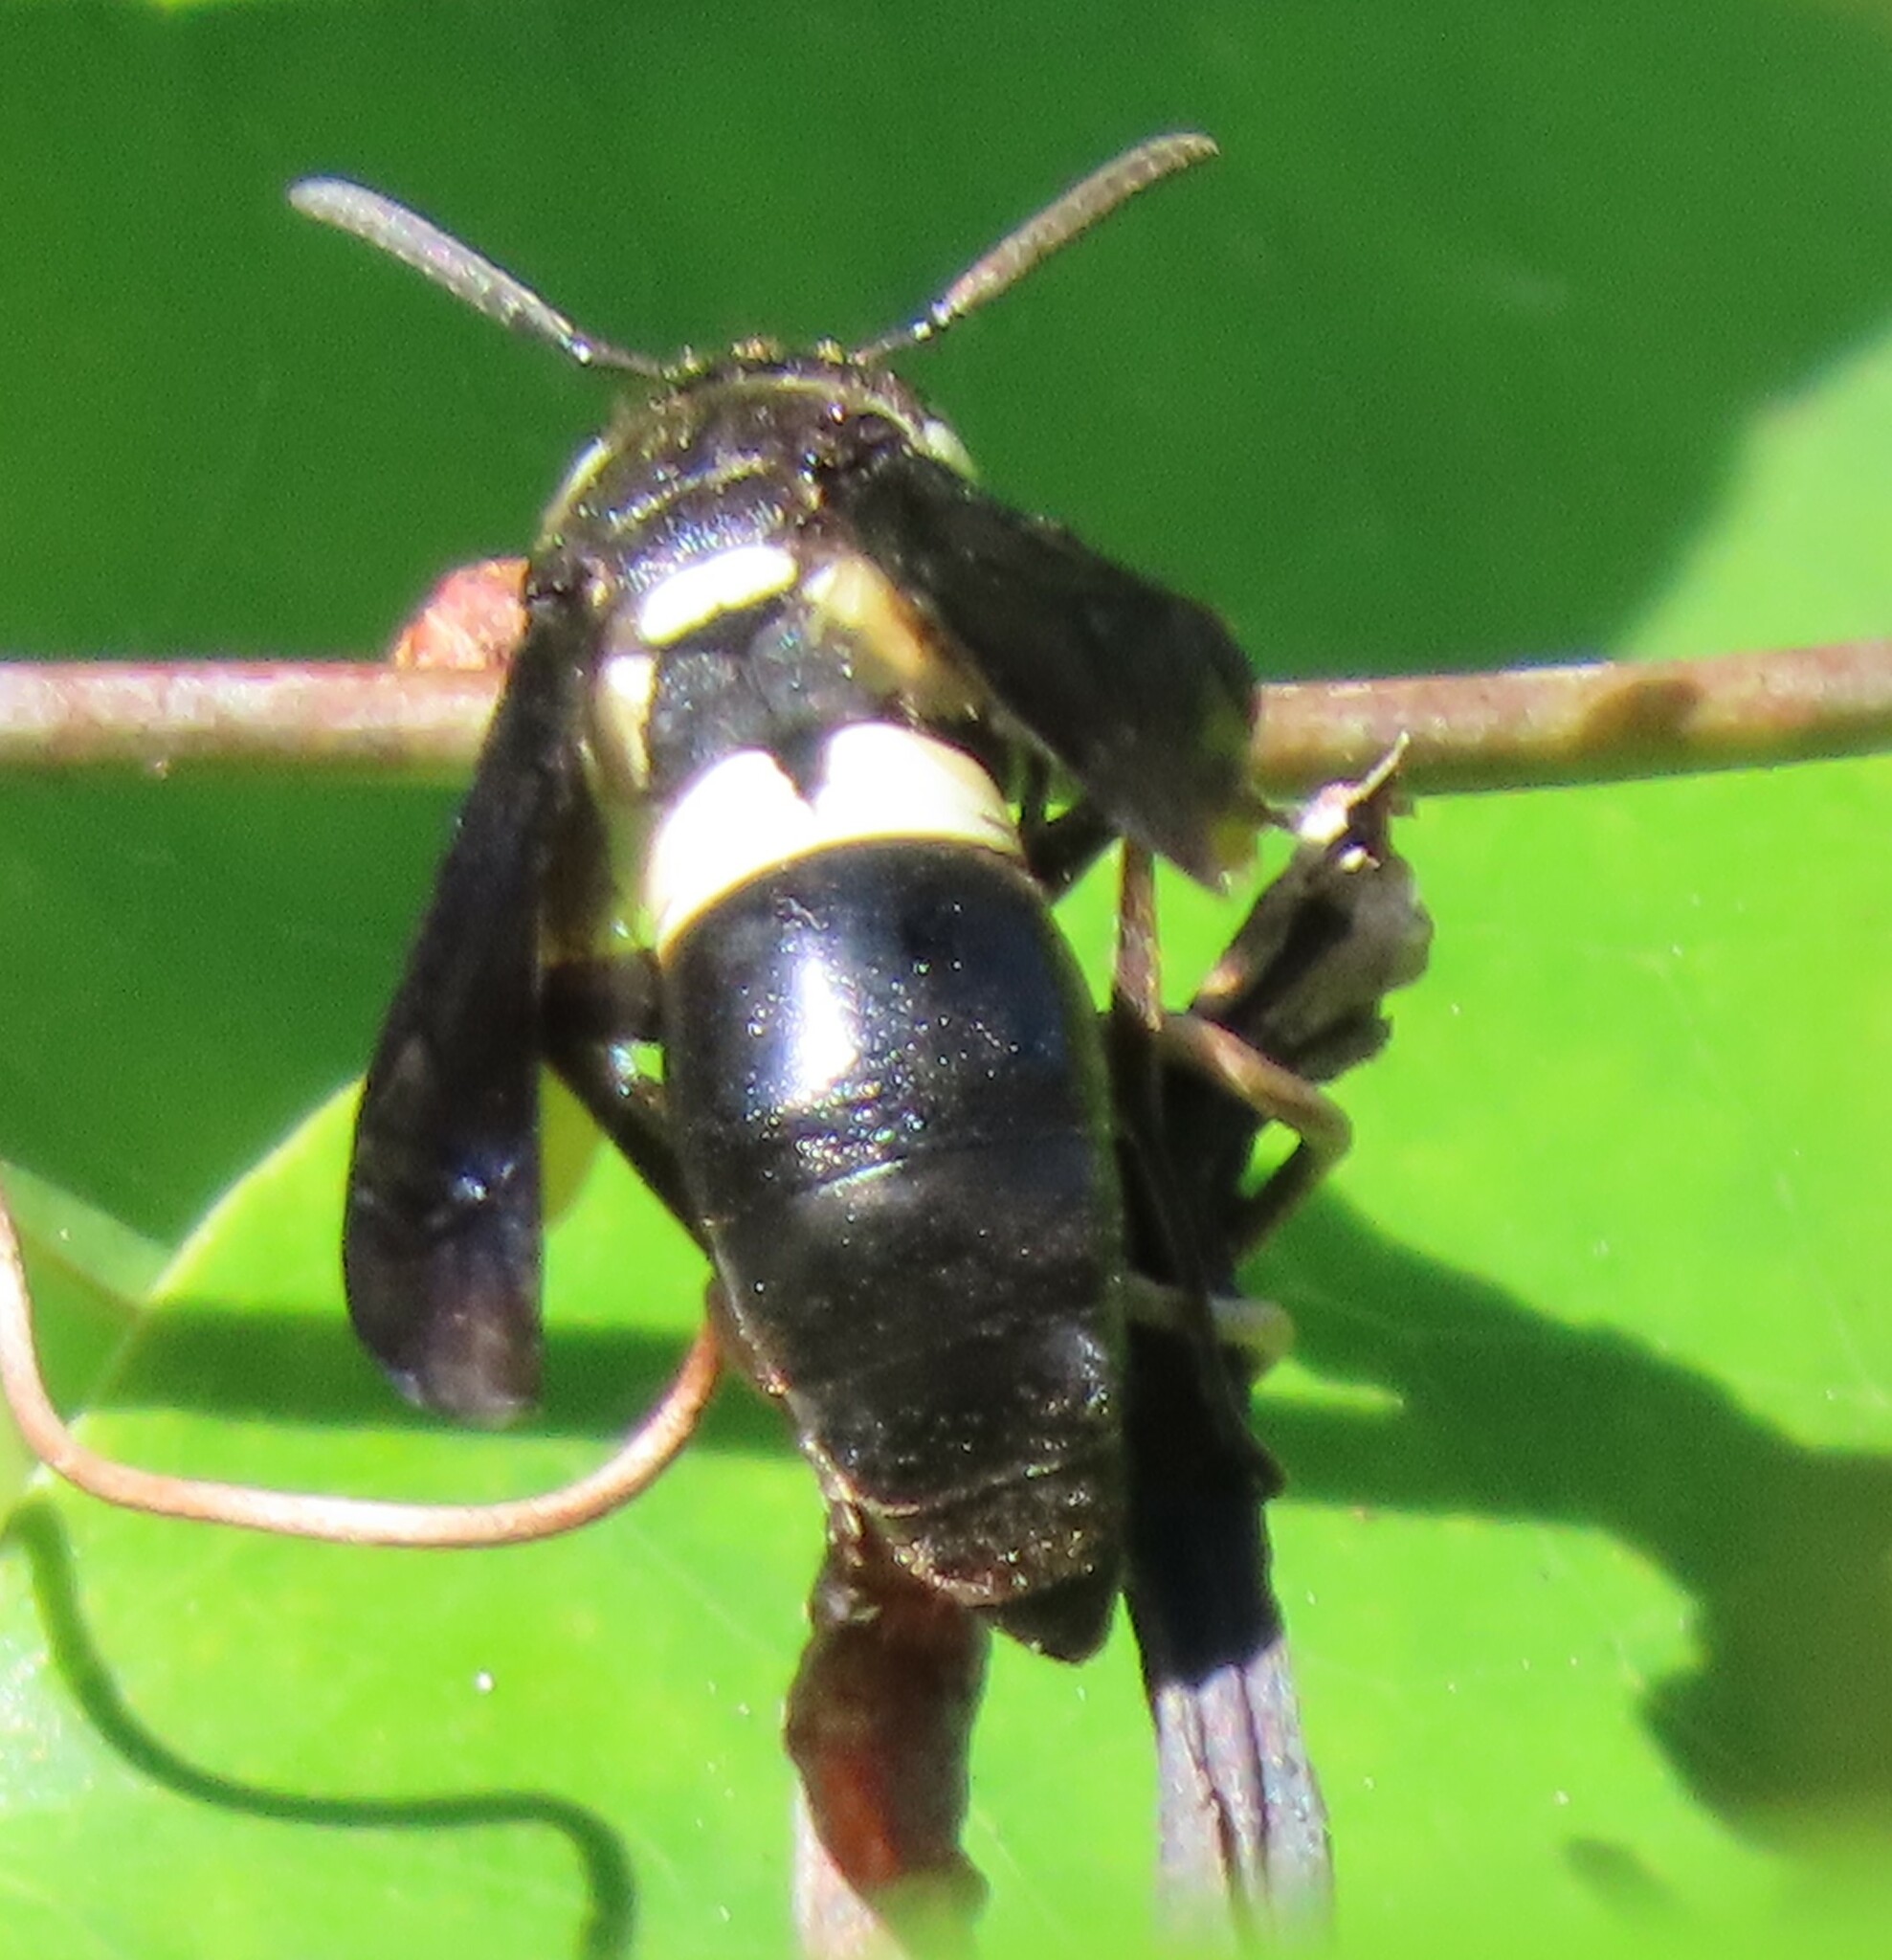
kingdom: Animalia
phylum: Arthropoda
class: Insecta
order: Hymenoptera
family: Eumenidae
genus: Euodynerus
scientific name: Euodynerus bidens
